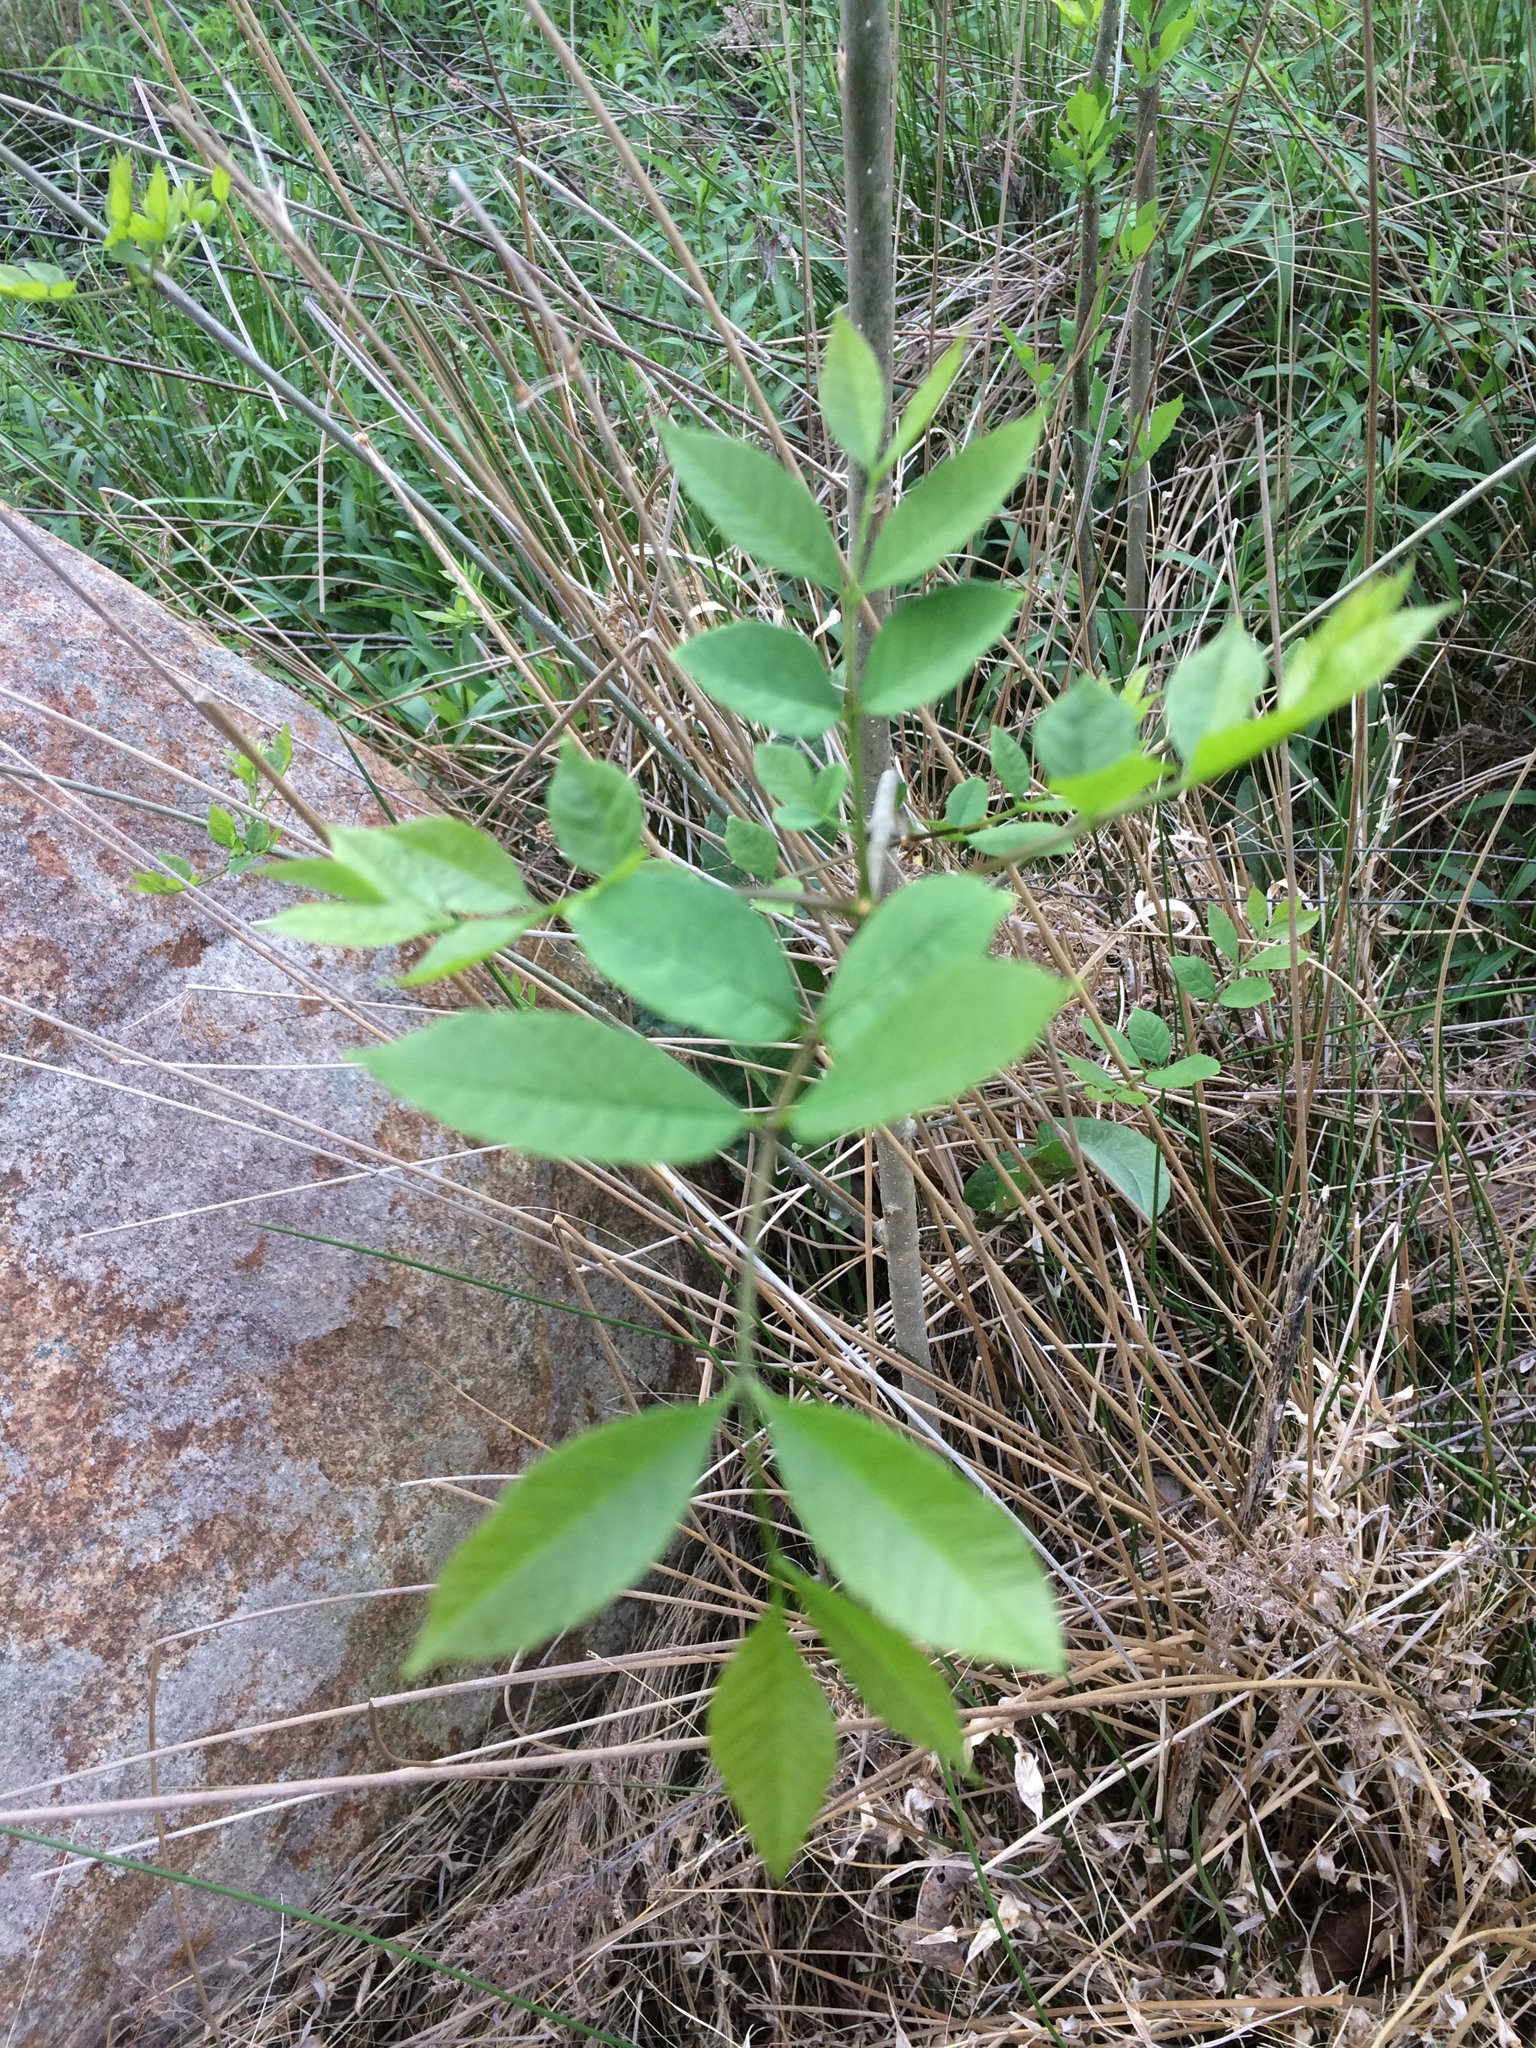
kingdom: Plantae
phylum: Tracheophyta
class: Magnoliopsida
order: Lamiales
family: Oleaceae
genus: Fraxinus
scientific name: Fraxinus pennsylvanica
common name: Green ash
